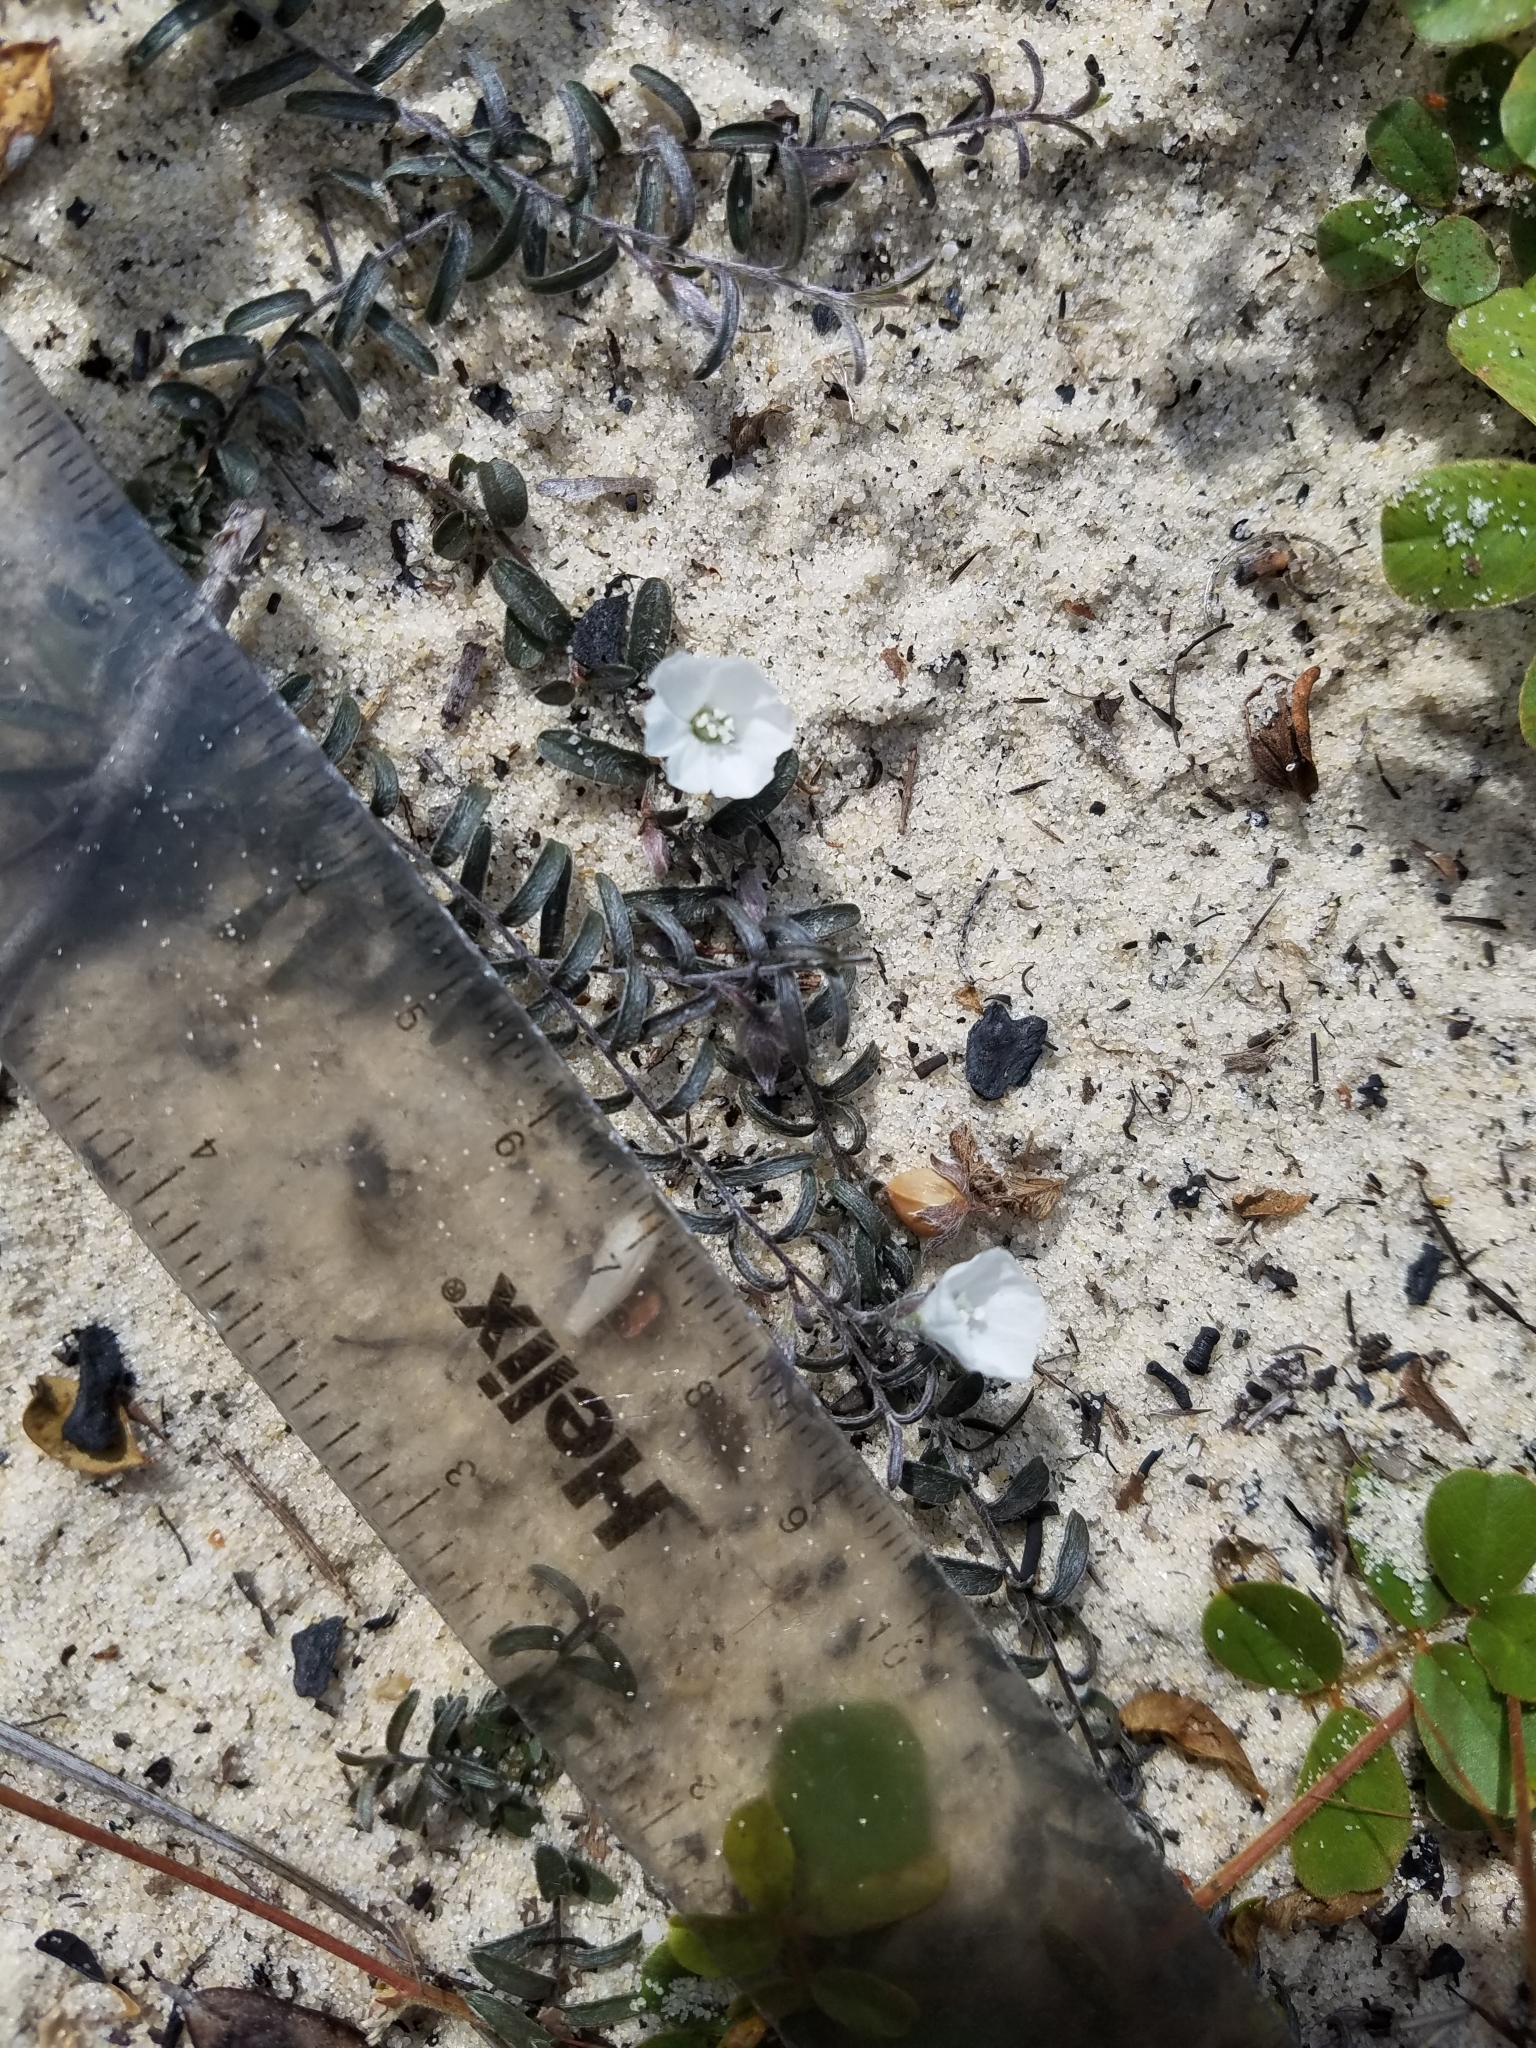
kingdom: Plantae
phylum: Tracheophyta
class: Magnoliopsida
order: Solanales
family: Convolvulaceae
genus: Stylisma
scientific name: Stylisma abdita
